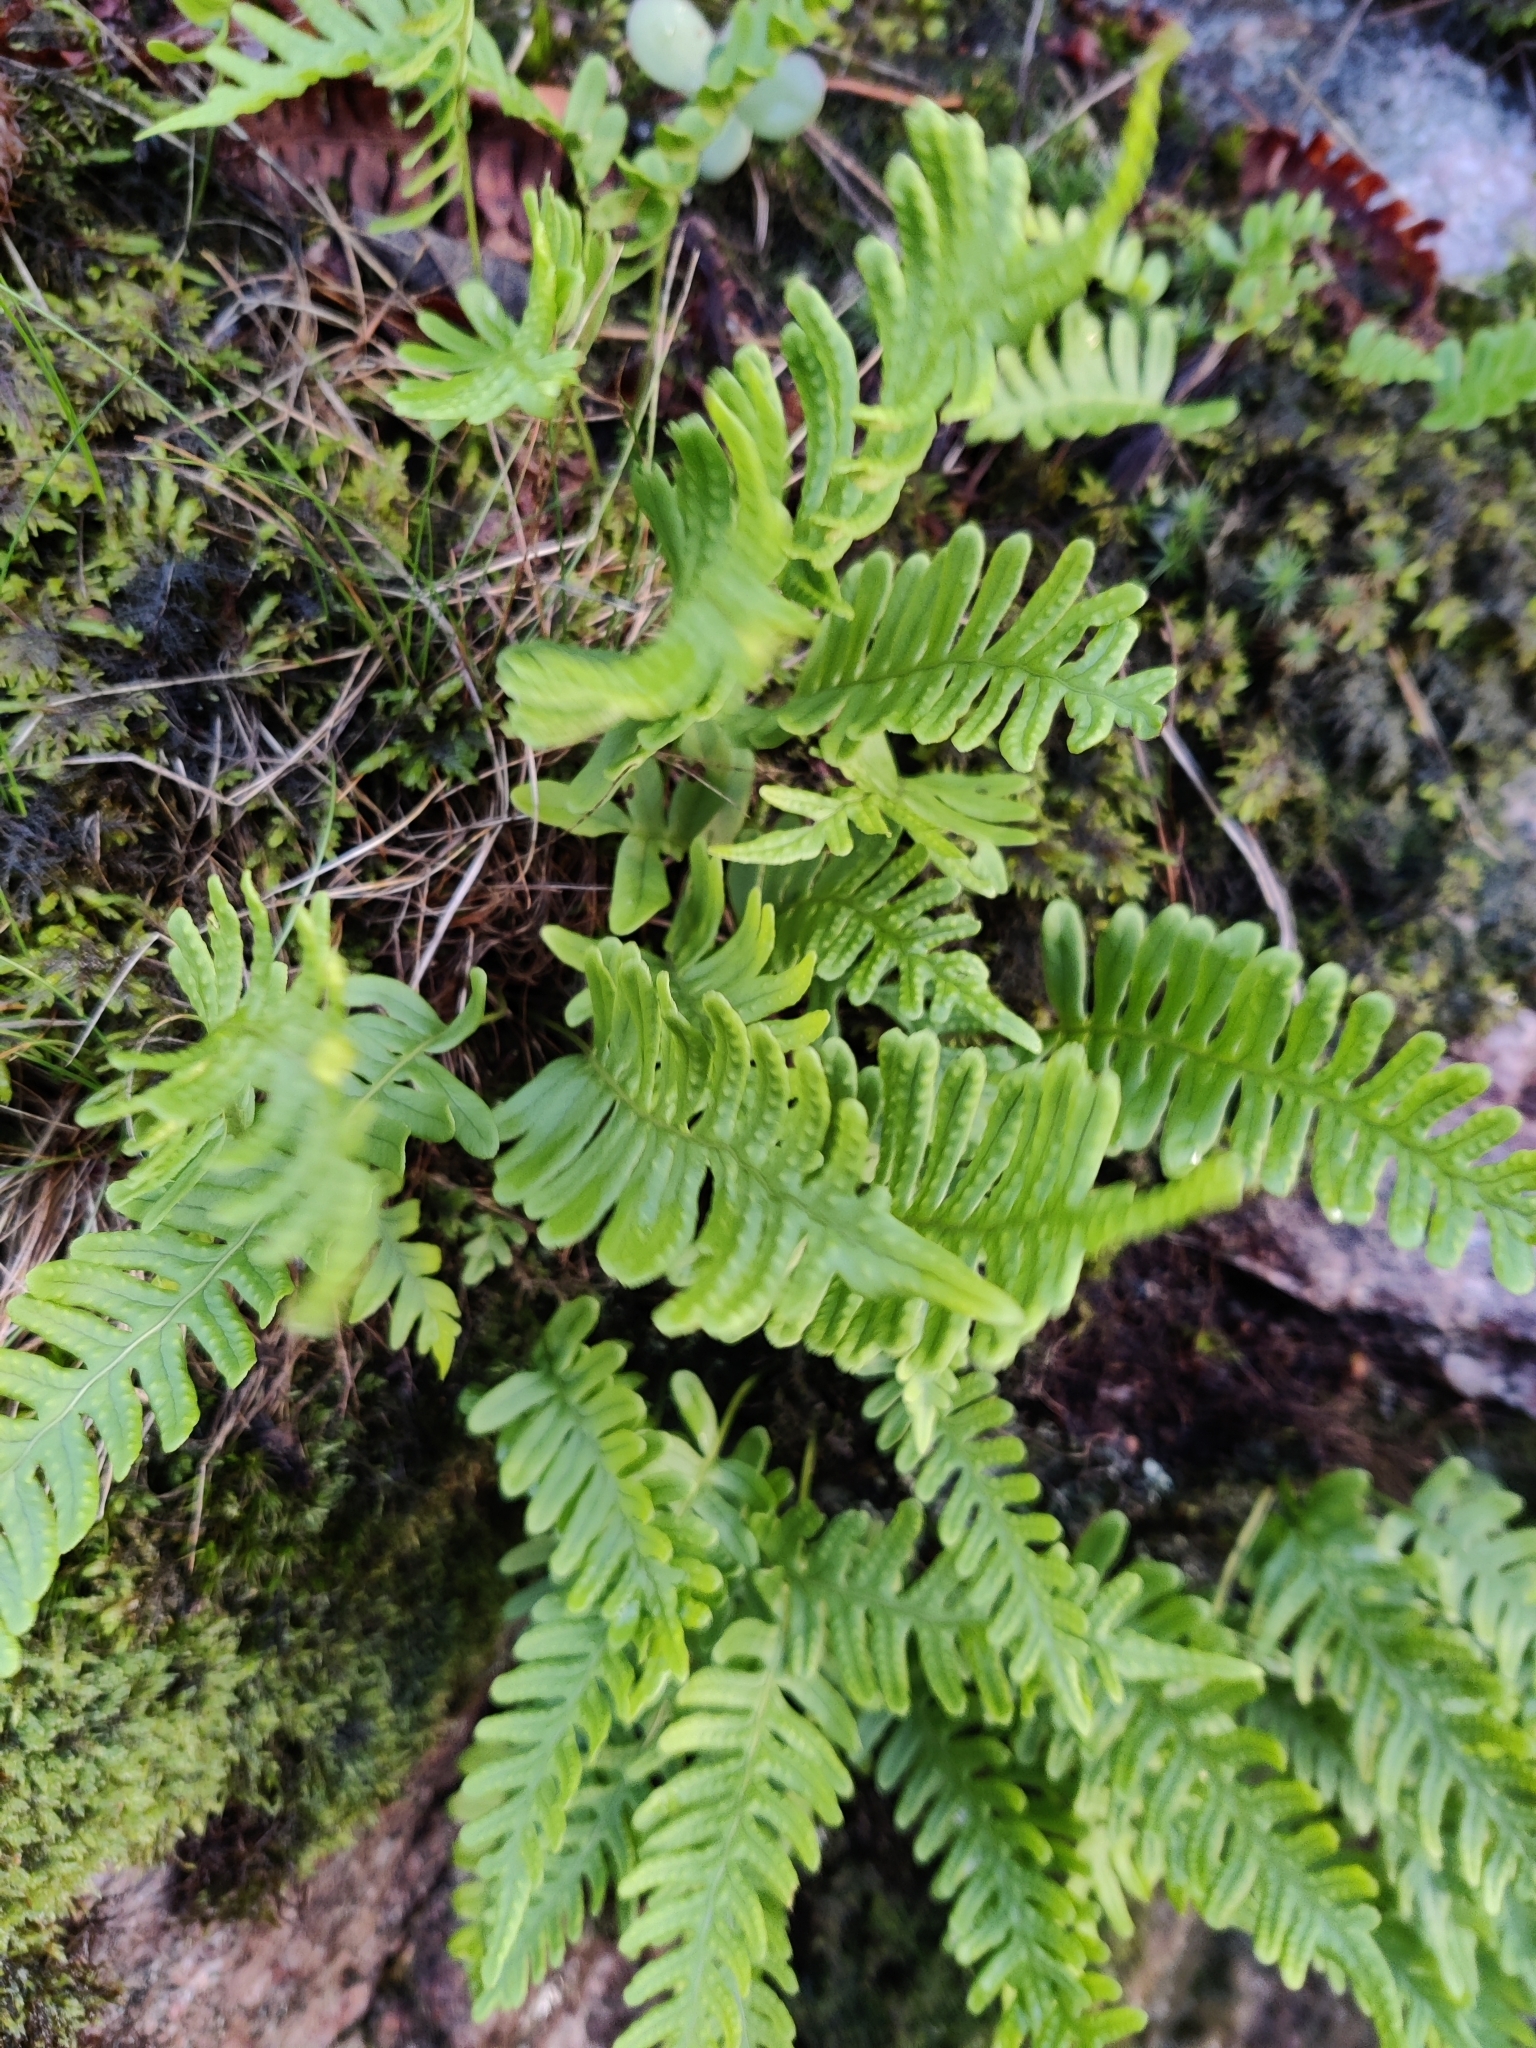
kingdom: Plantae
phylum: Tracheophyta
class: Polypodiopsida
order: Polypodiales
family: Polypodiaceae
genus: Polypodium
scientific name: Polypodium vulgare
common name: Common polypody
